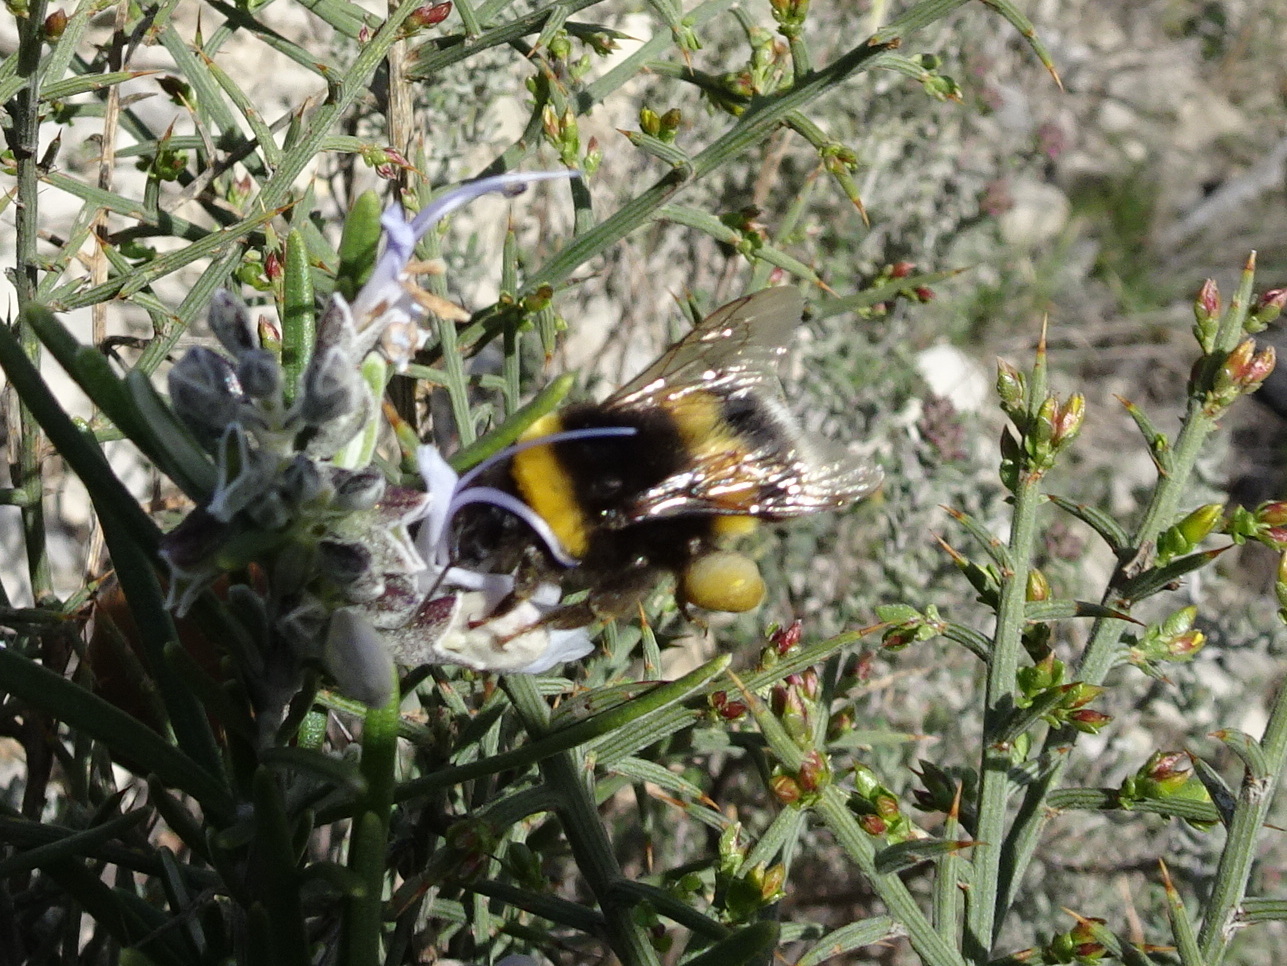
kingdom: Animalia
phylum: Arthropoda
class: Insecta
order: Hymenoptera
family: Apidae
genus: Bombus
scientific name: Bombus terrestris
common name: Buff-tailed bumblebee
